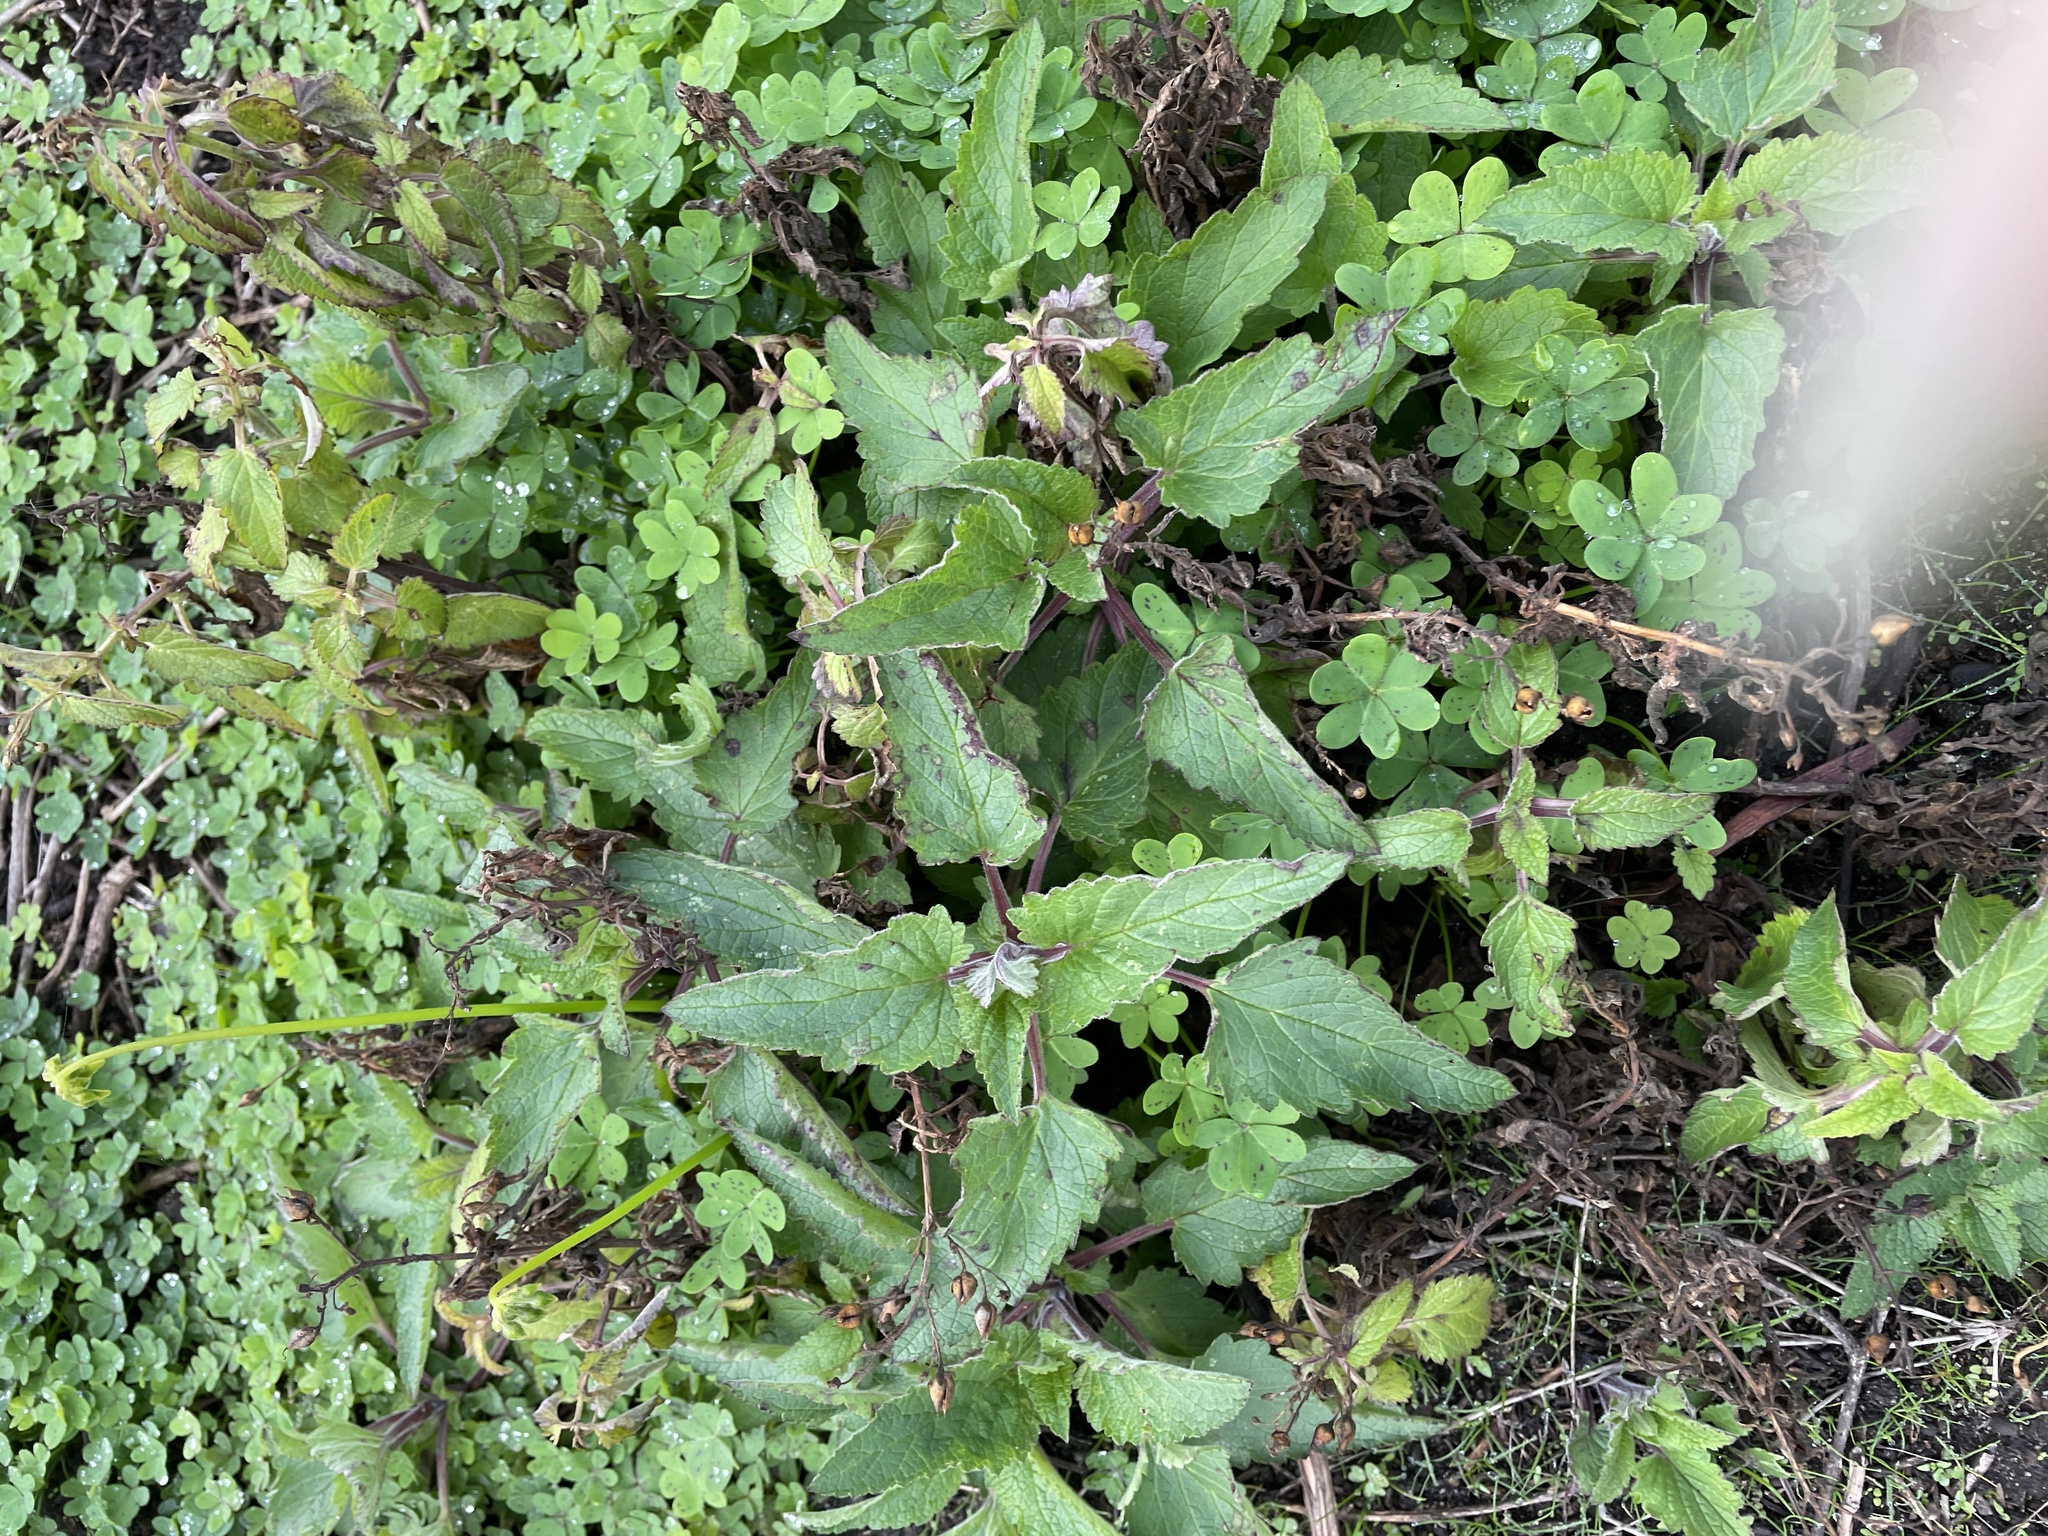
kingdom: Plantae
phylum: Tracheophyta
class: Magnoliopsida
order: Lamiales
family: Scrophulariaceae
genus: Scrophularia
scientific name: Scrophularia californica
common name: California figwort
